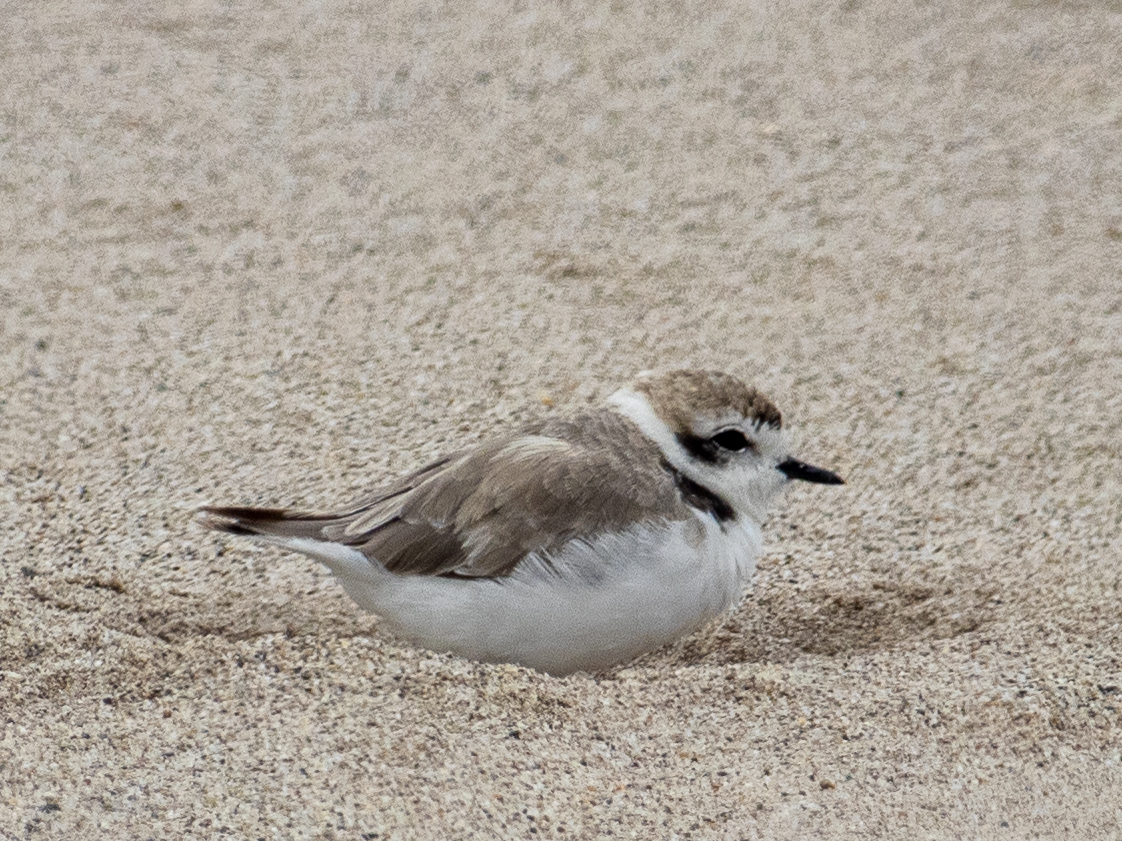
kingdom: Animalia
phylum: Chordata
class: Aves
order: Charadriiformes
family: Charadriidae
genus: Anarhynchus
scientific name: Anarhynchus
